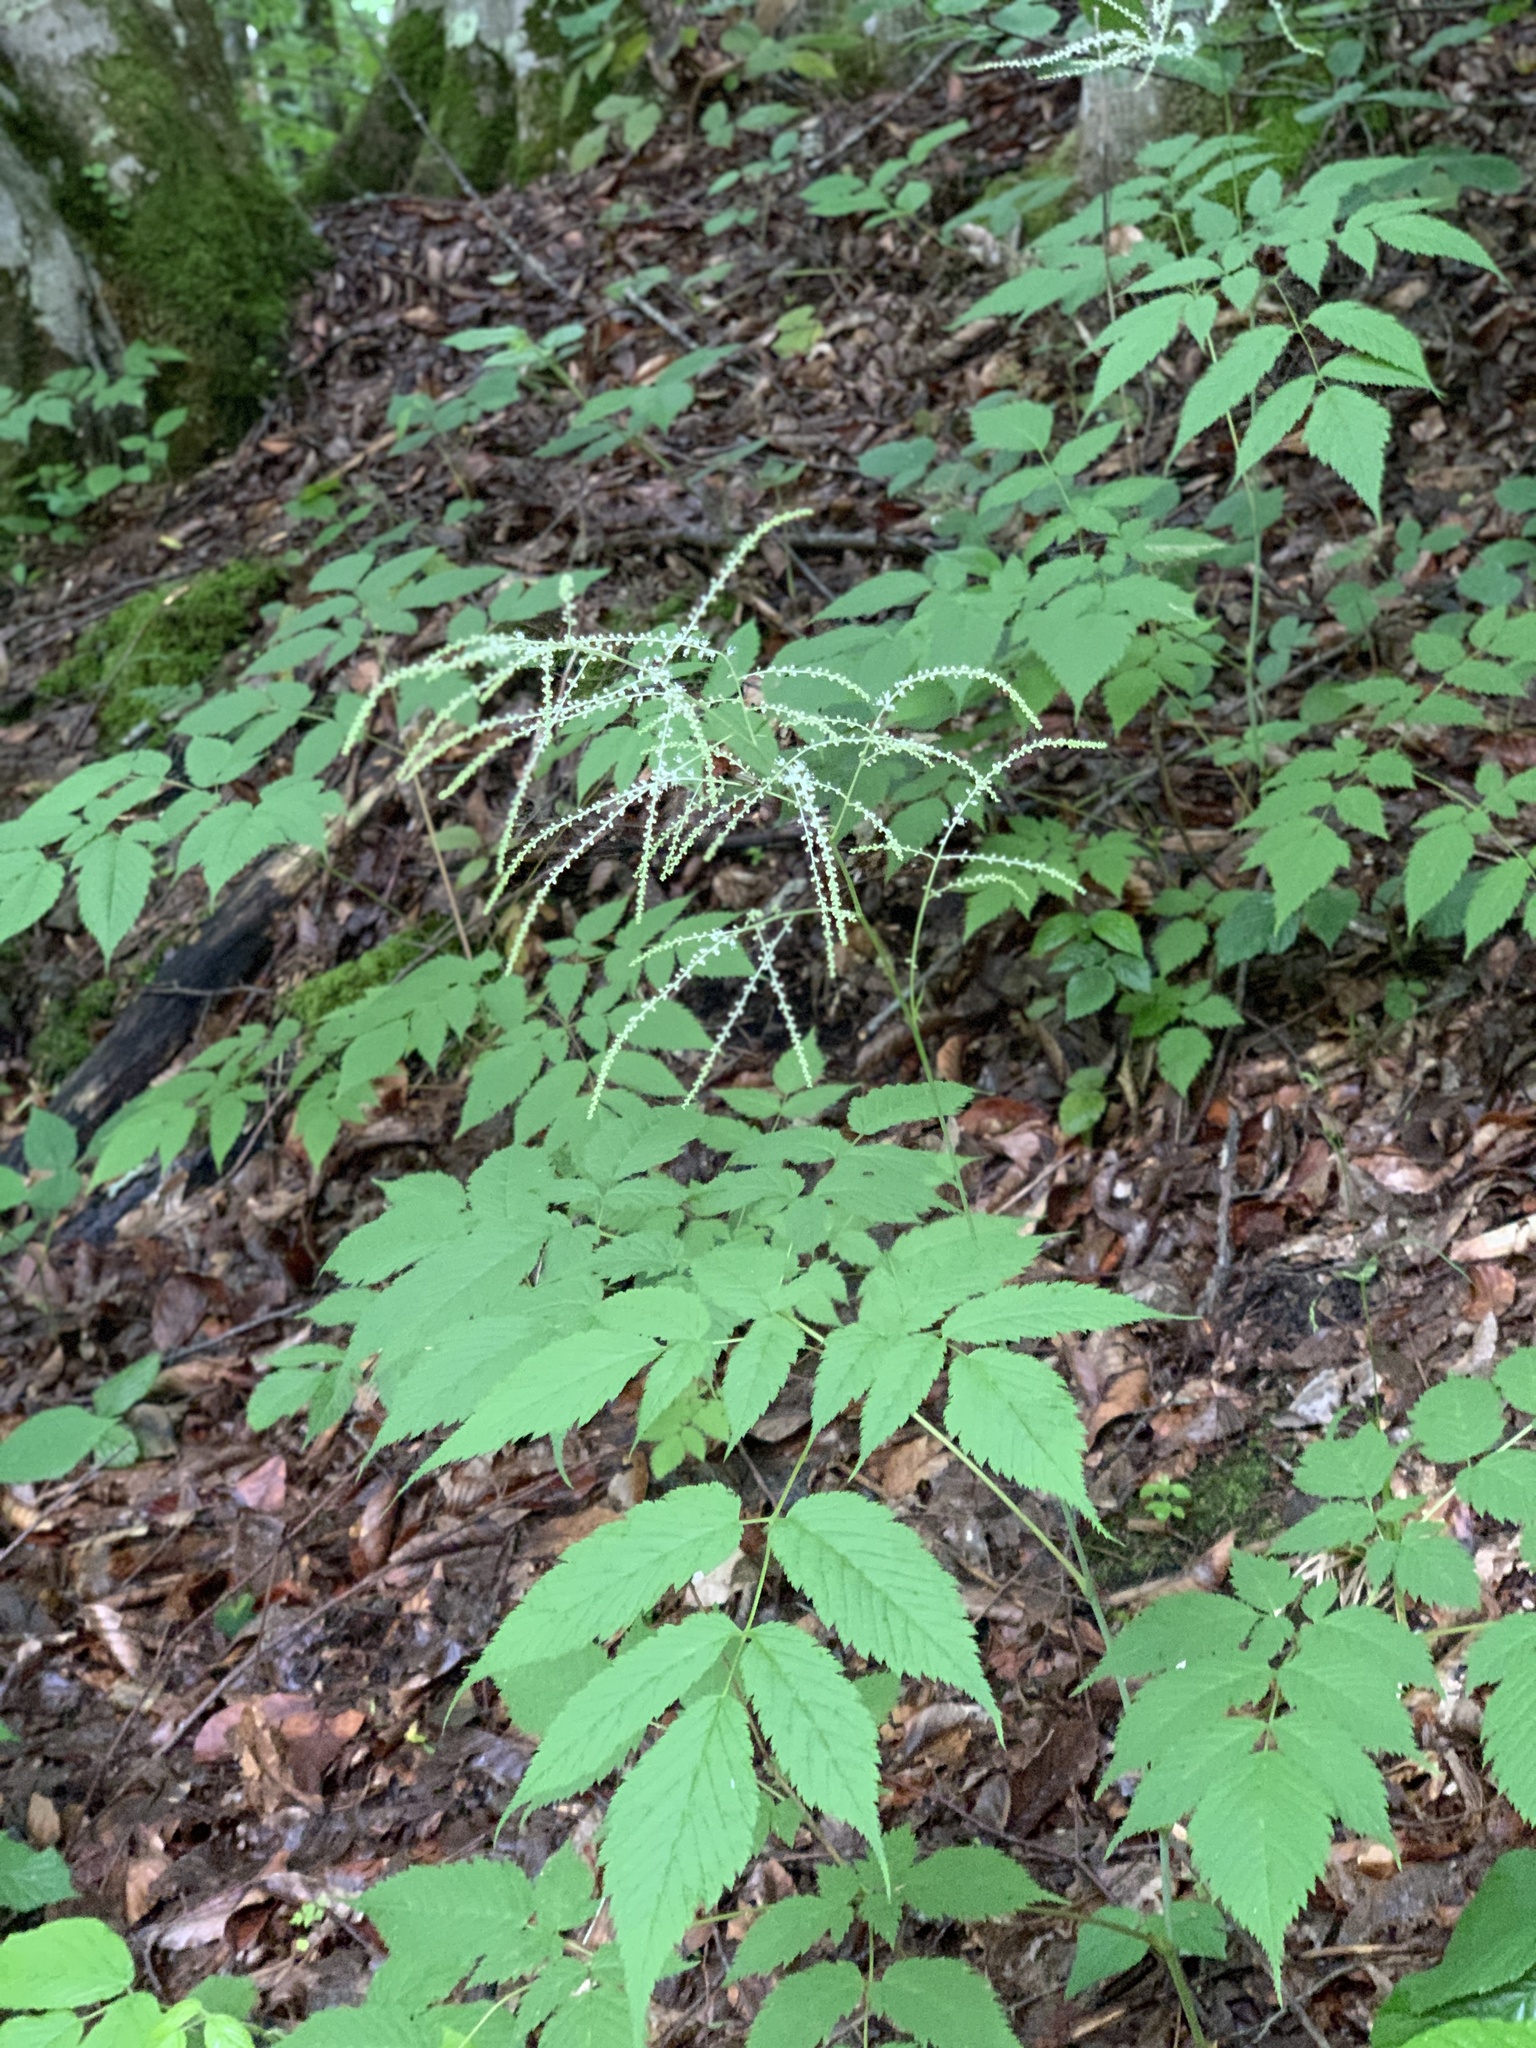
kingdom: Plantae
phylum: Tracheophyta
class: Magnoliopsida
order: Rosales
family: Rosaceae
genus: Aruncus
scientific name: Aruncus sylvester
